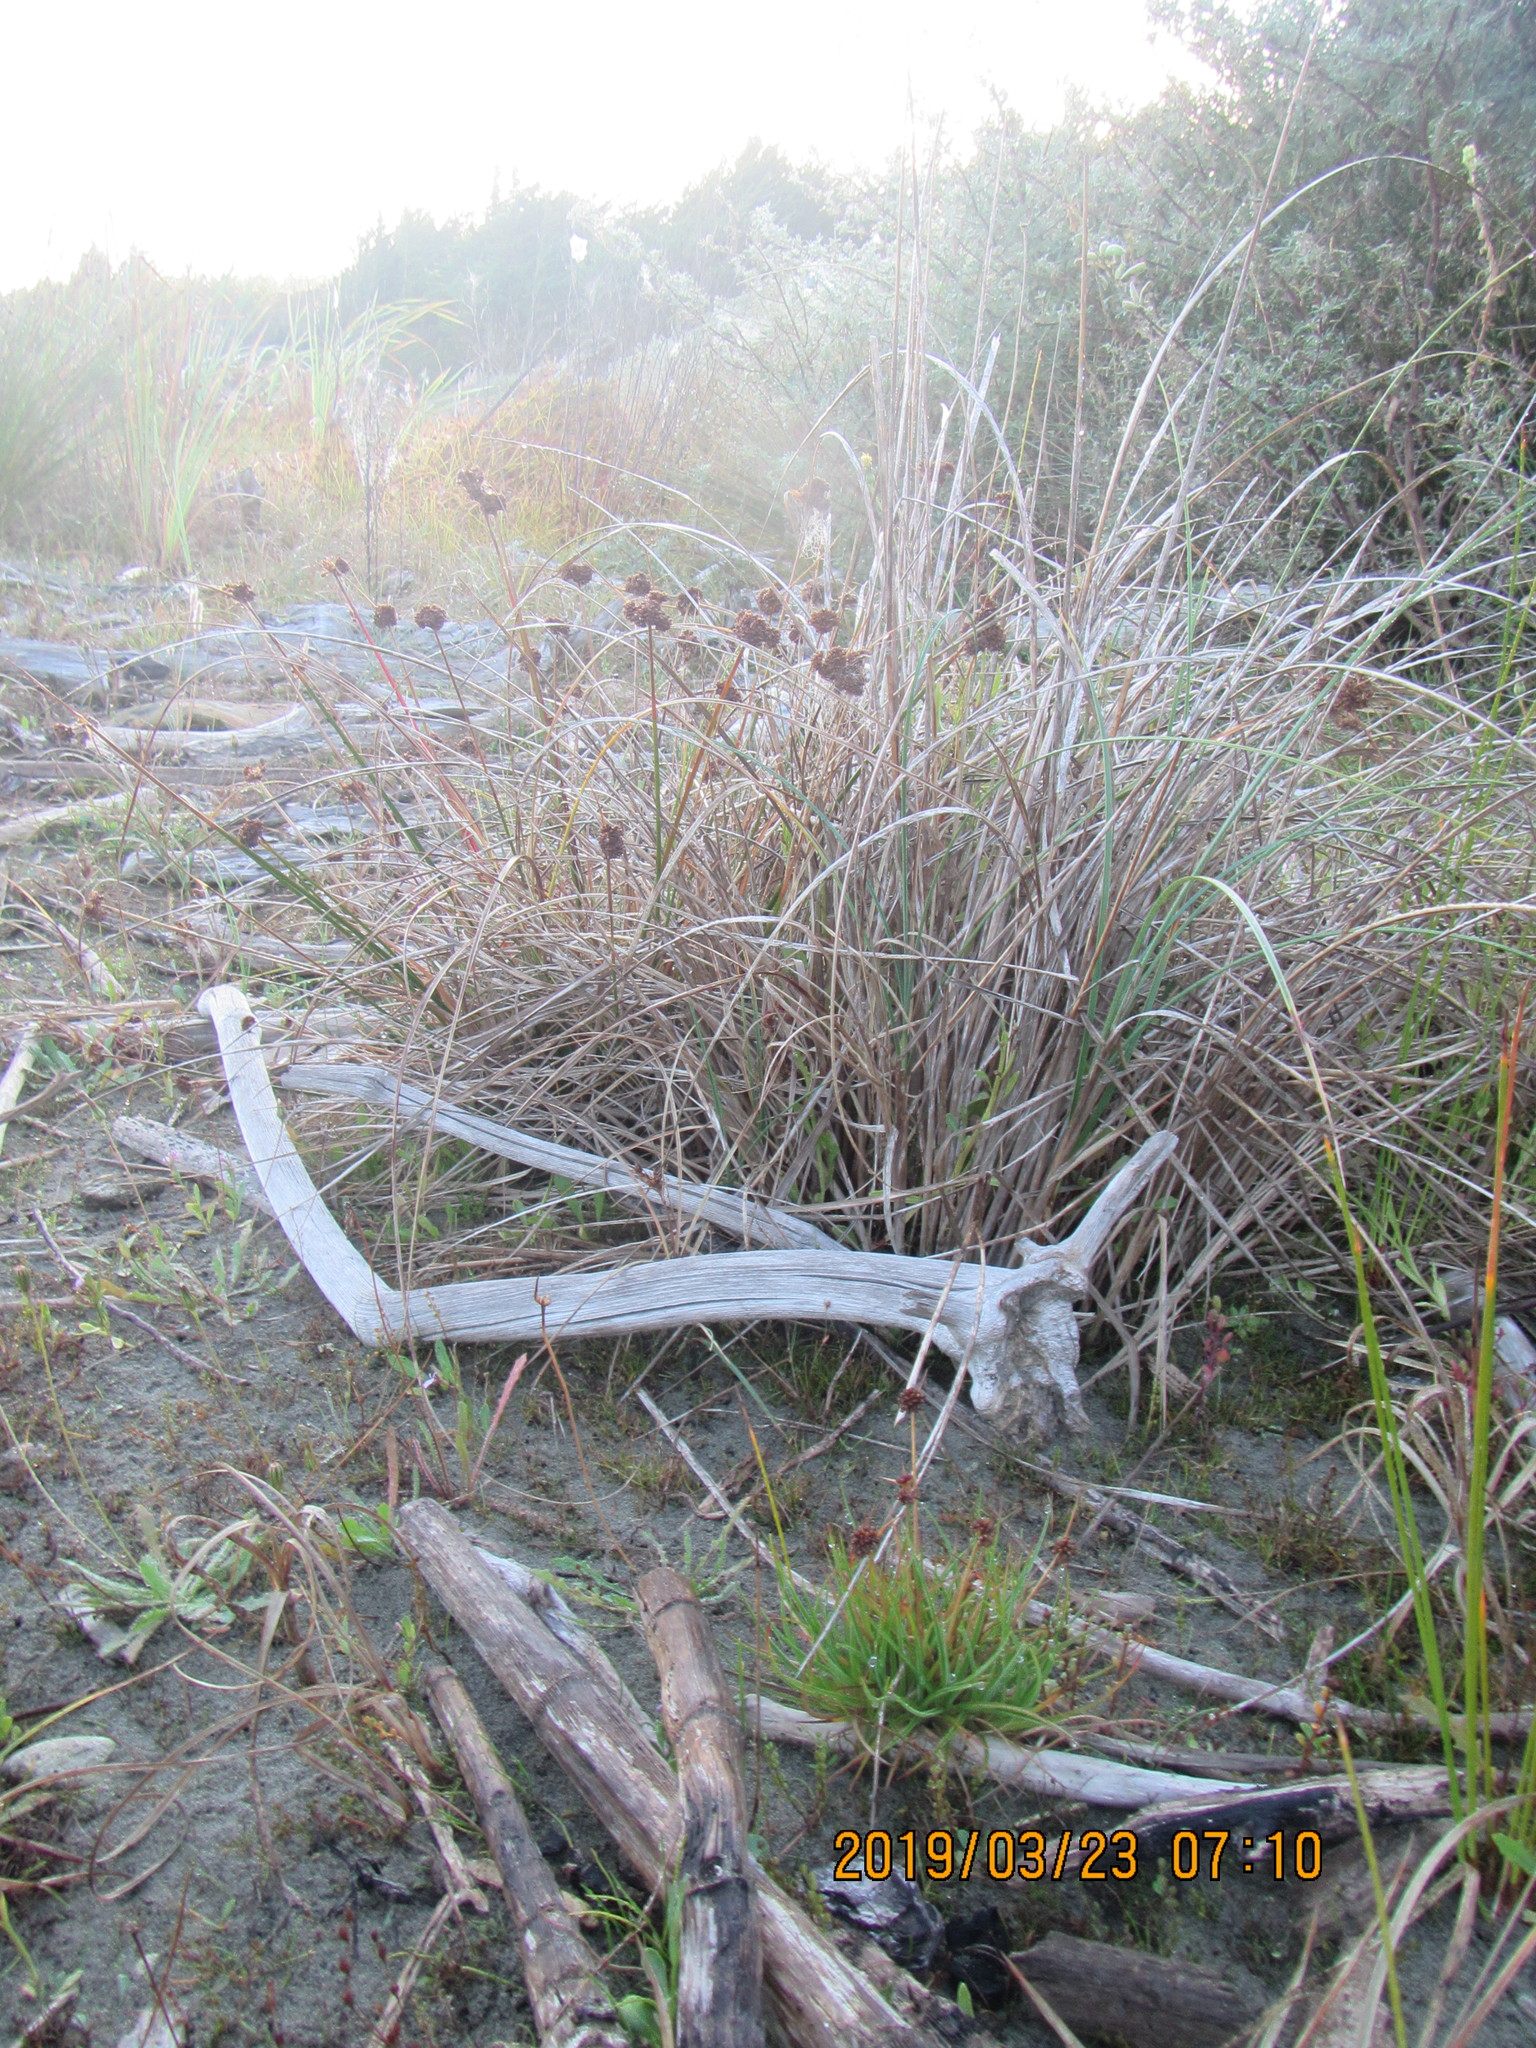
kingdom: Plantae
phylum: Tracheophyta
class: Liliopsida
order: Poales
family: Juncaceae
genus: Juncus
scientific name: Juncus caespiticius
